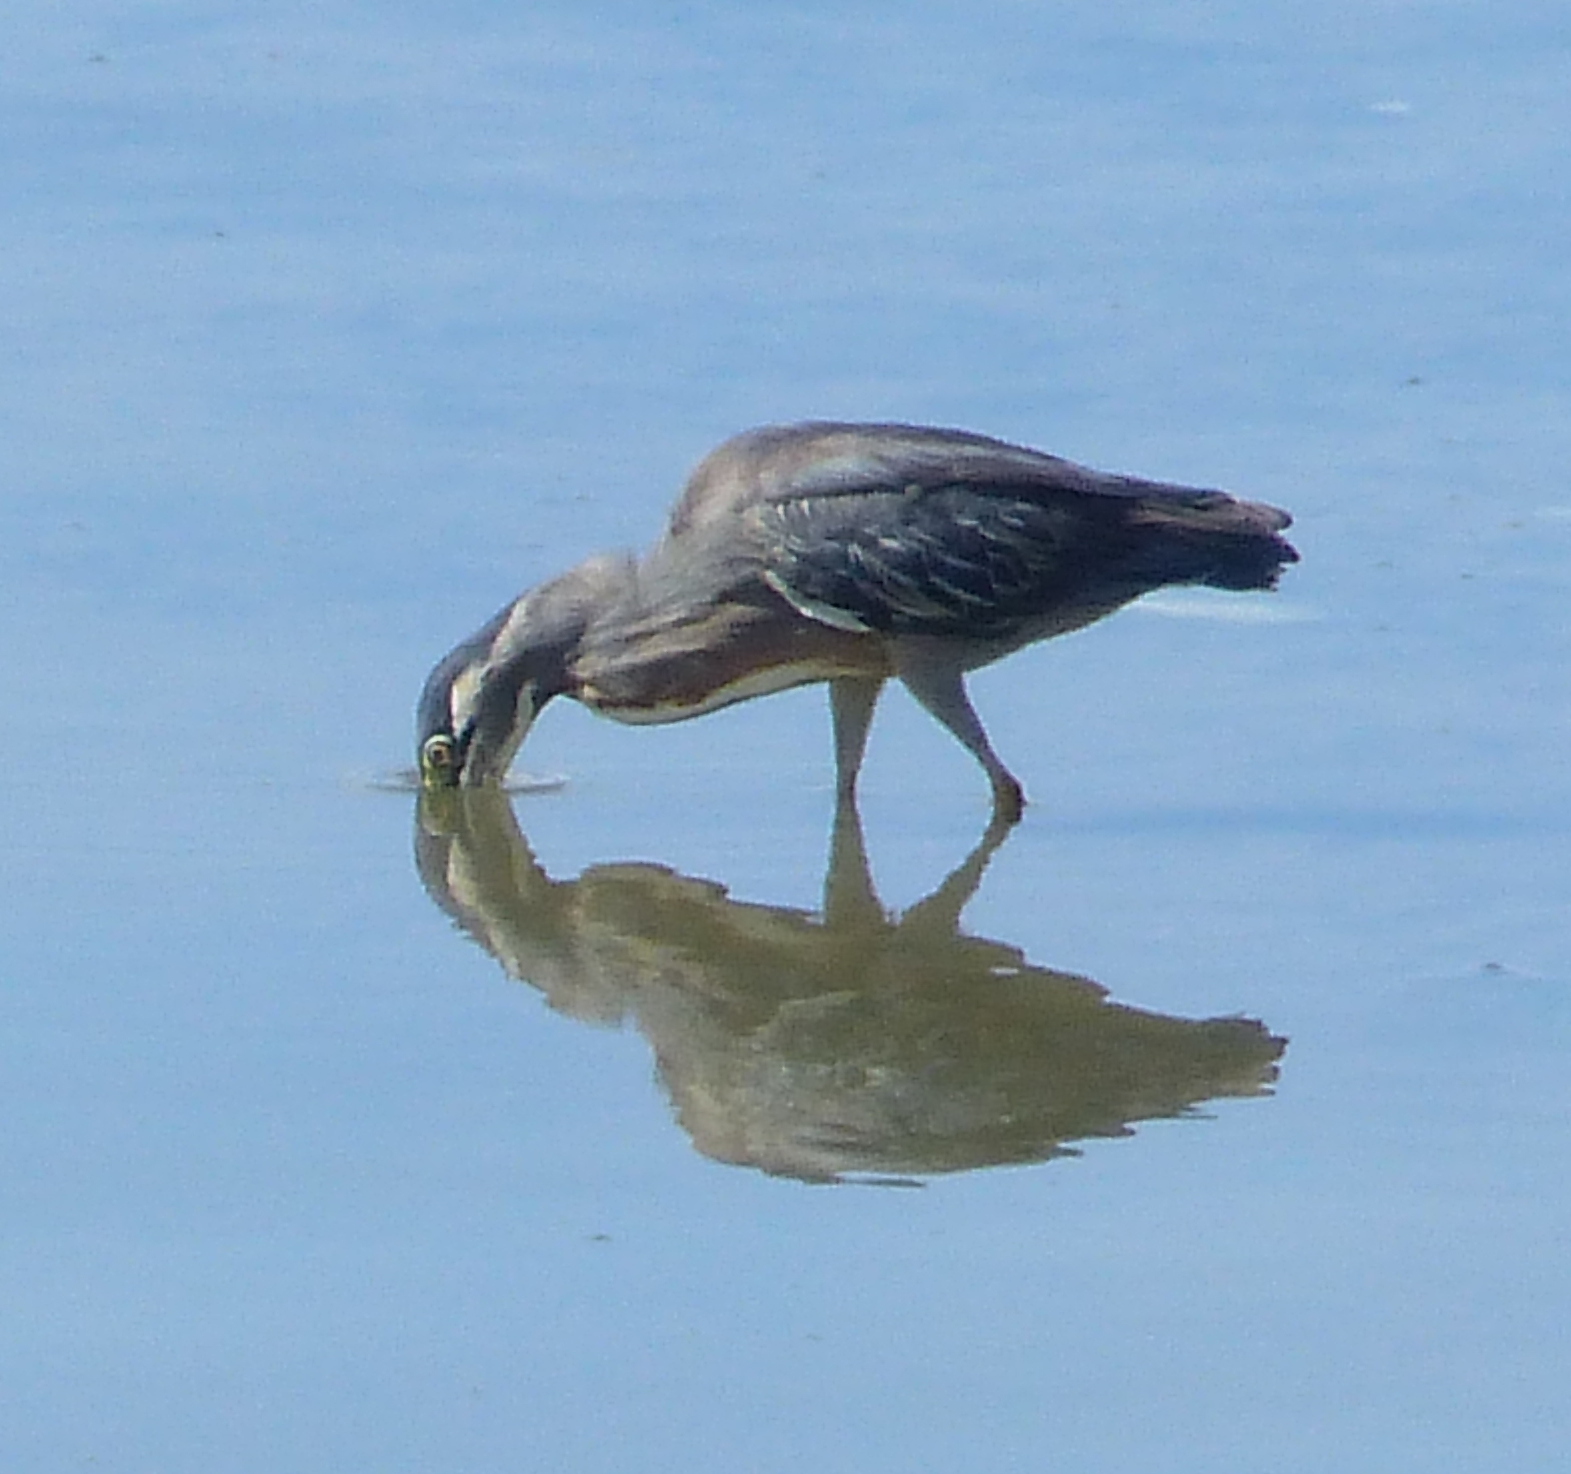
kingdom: Animalia
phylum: Chordata
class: Aves
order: Pelecaniformes
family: Ardeidae
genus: Butorides
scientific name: Butorides striata
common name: Striated heron
